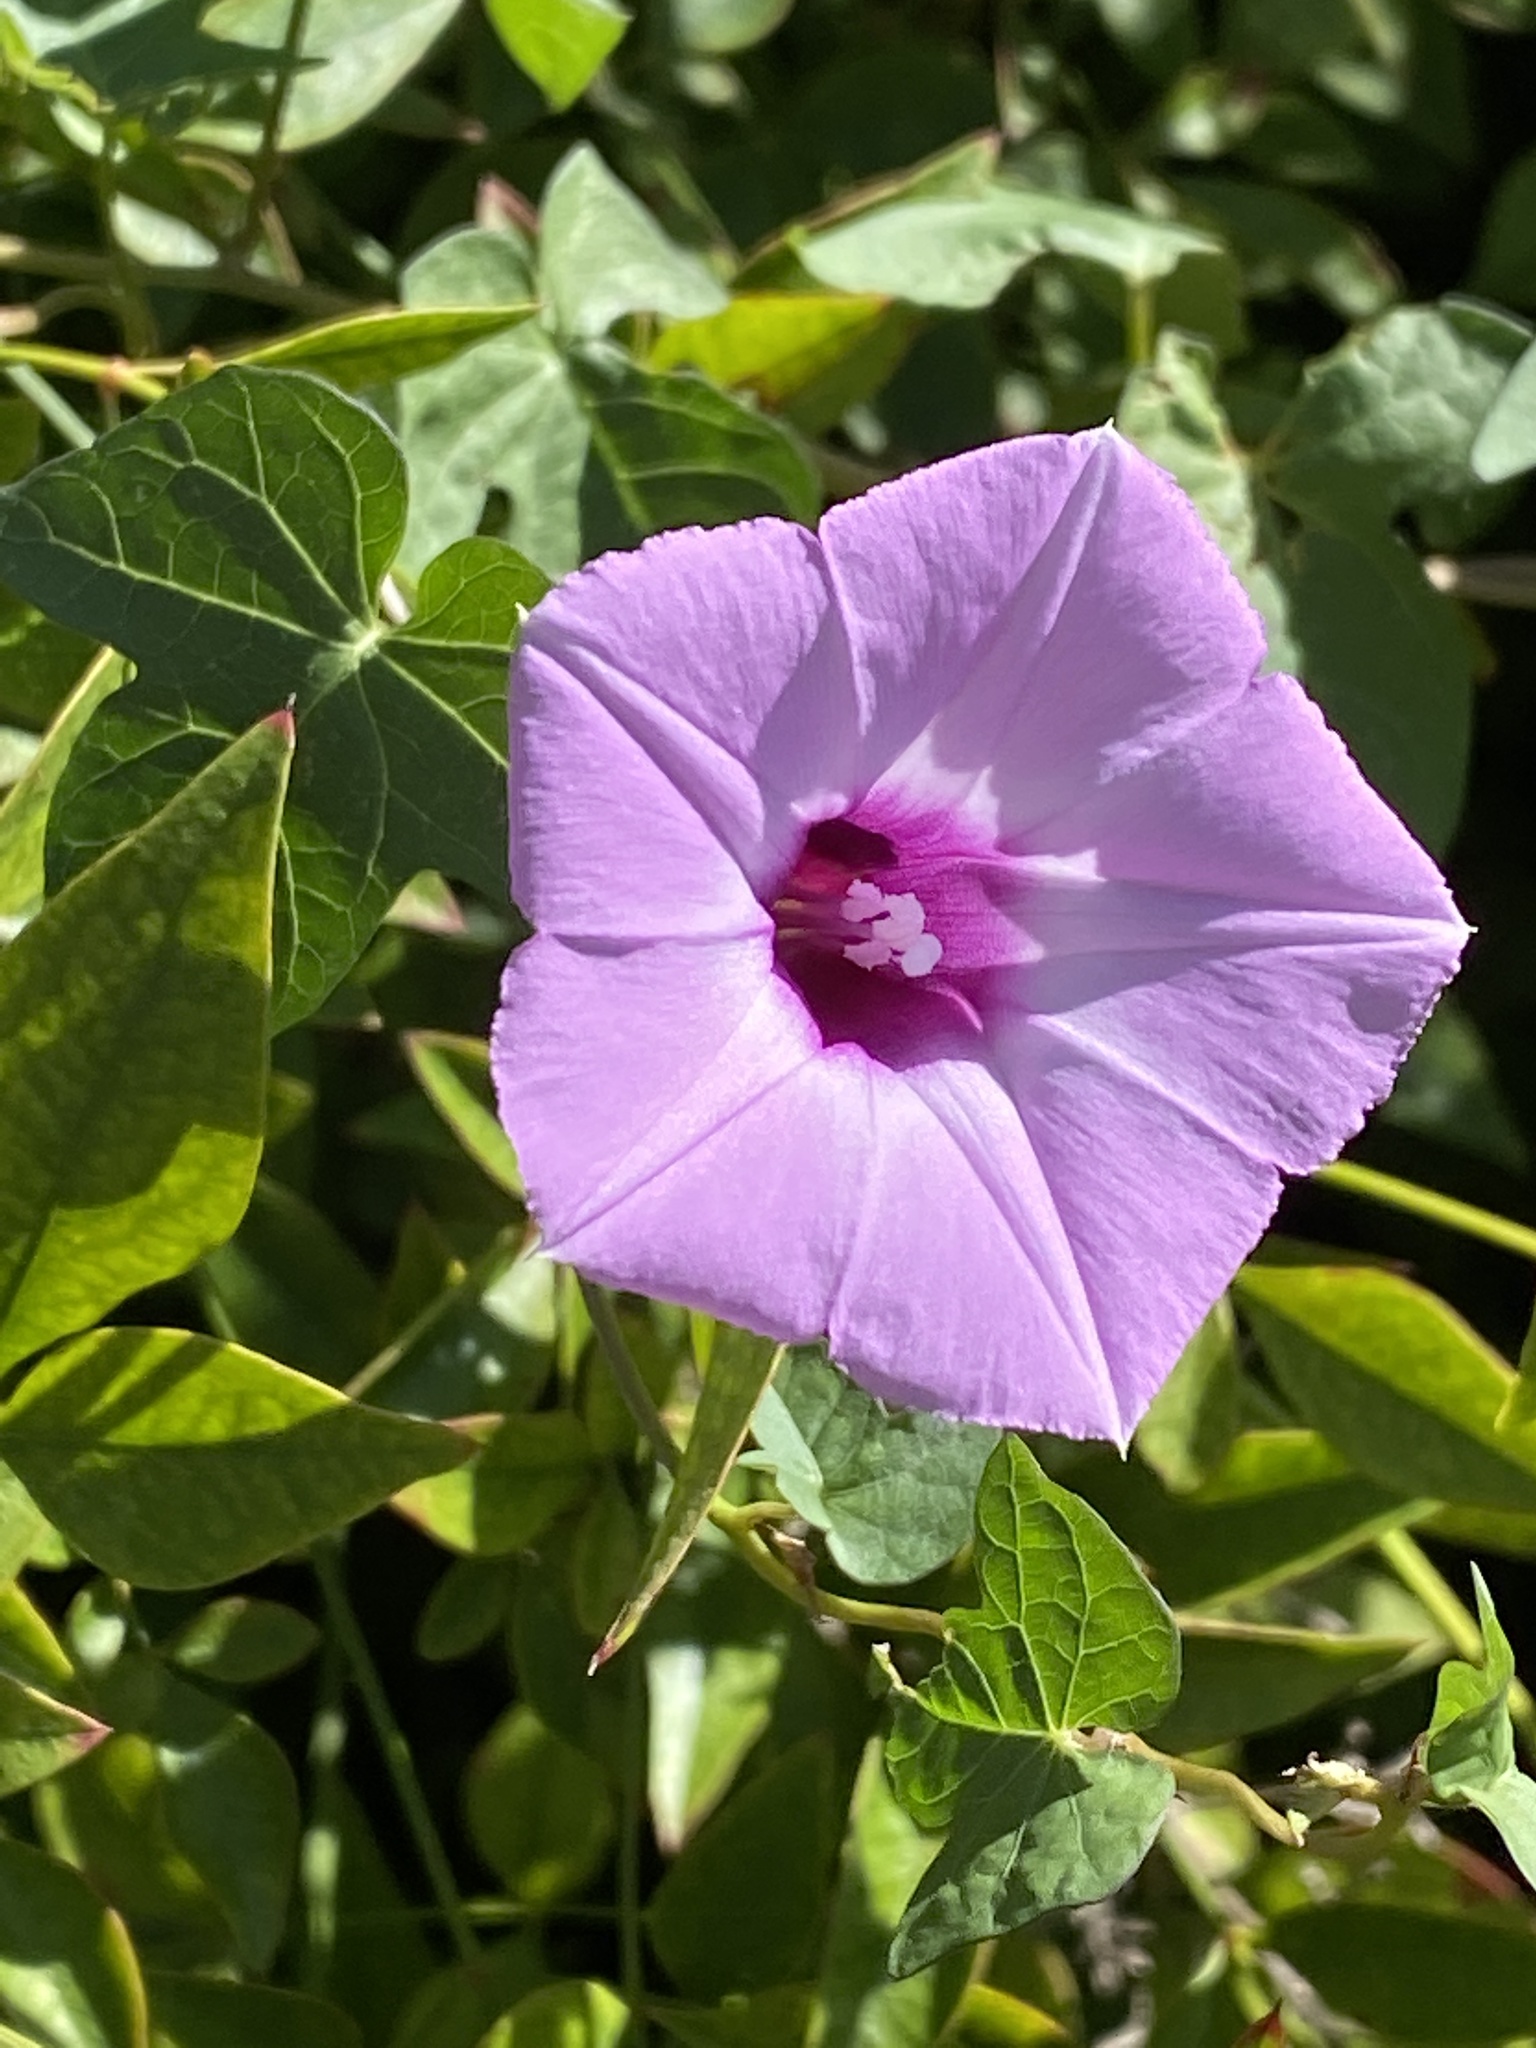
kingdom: Plantae
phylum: Tracheophyta
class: Magnoliopsida
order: Solanales
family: Convolvulaceae
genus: Ipomoea
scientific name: Ipomoea cordatotriloba
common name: Cotton morning glory
